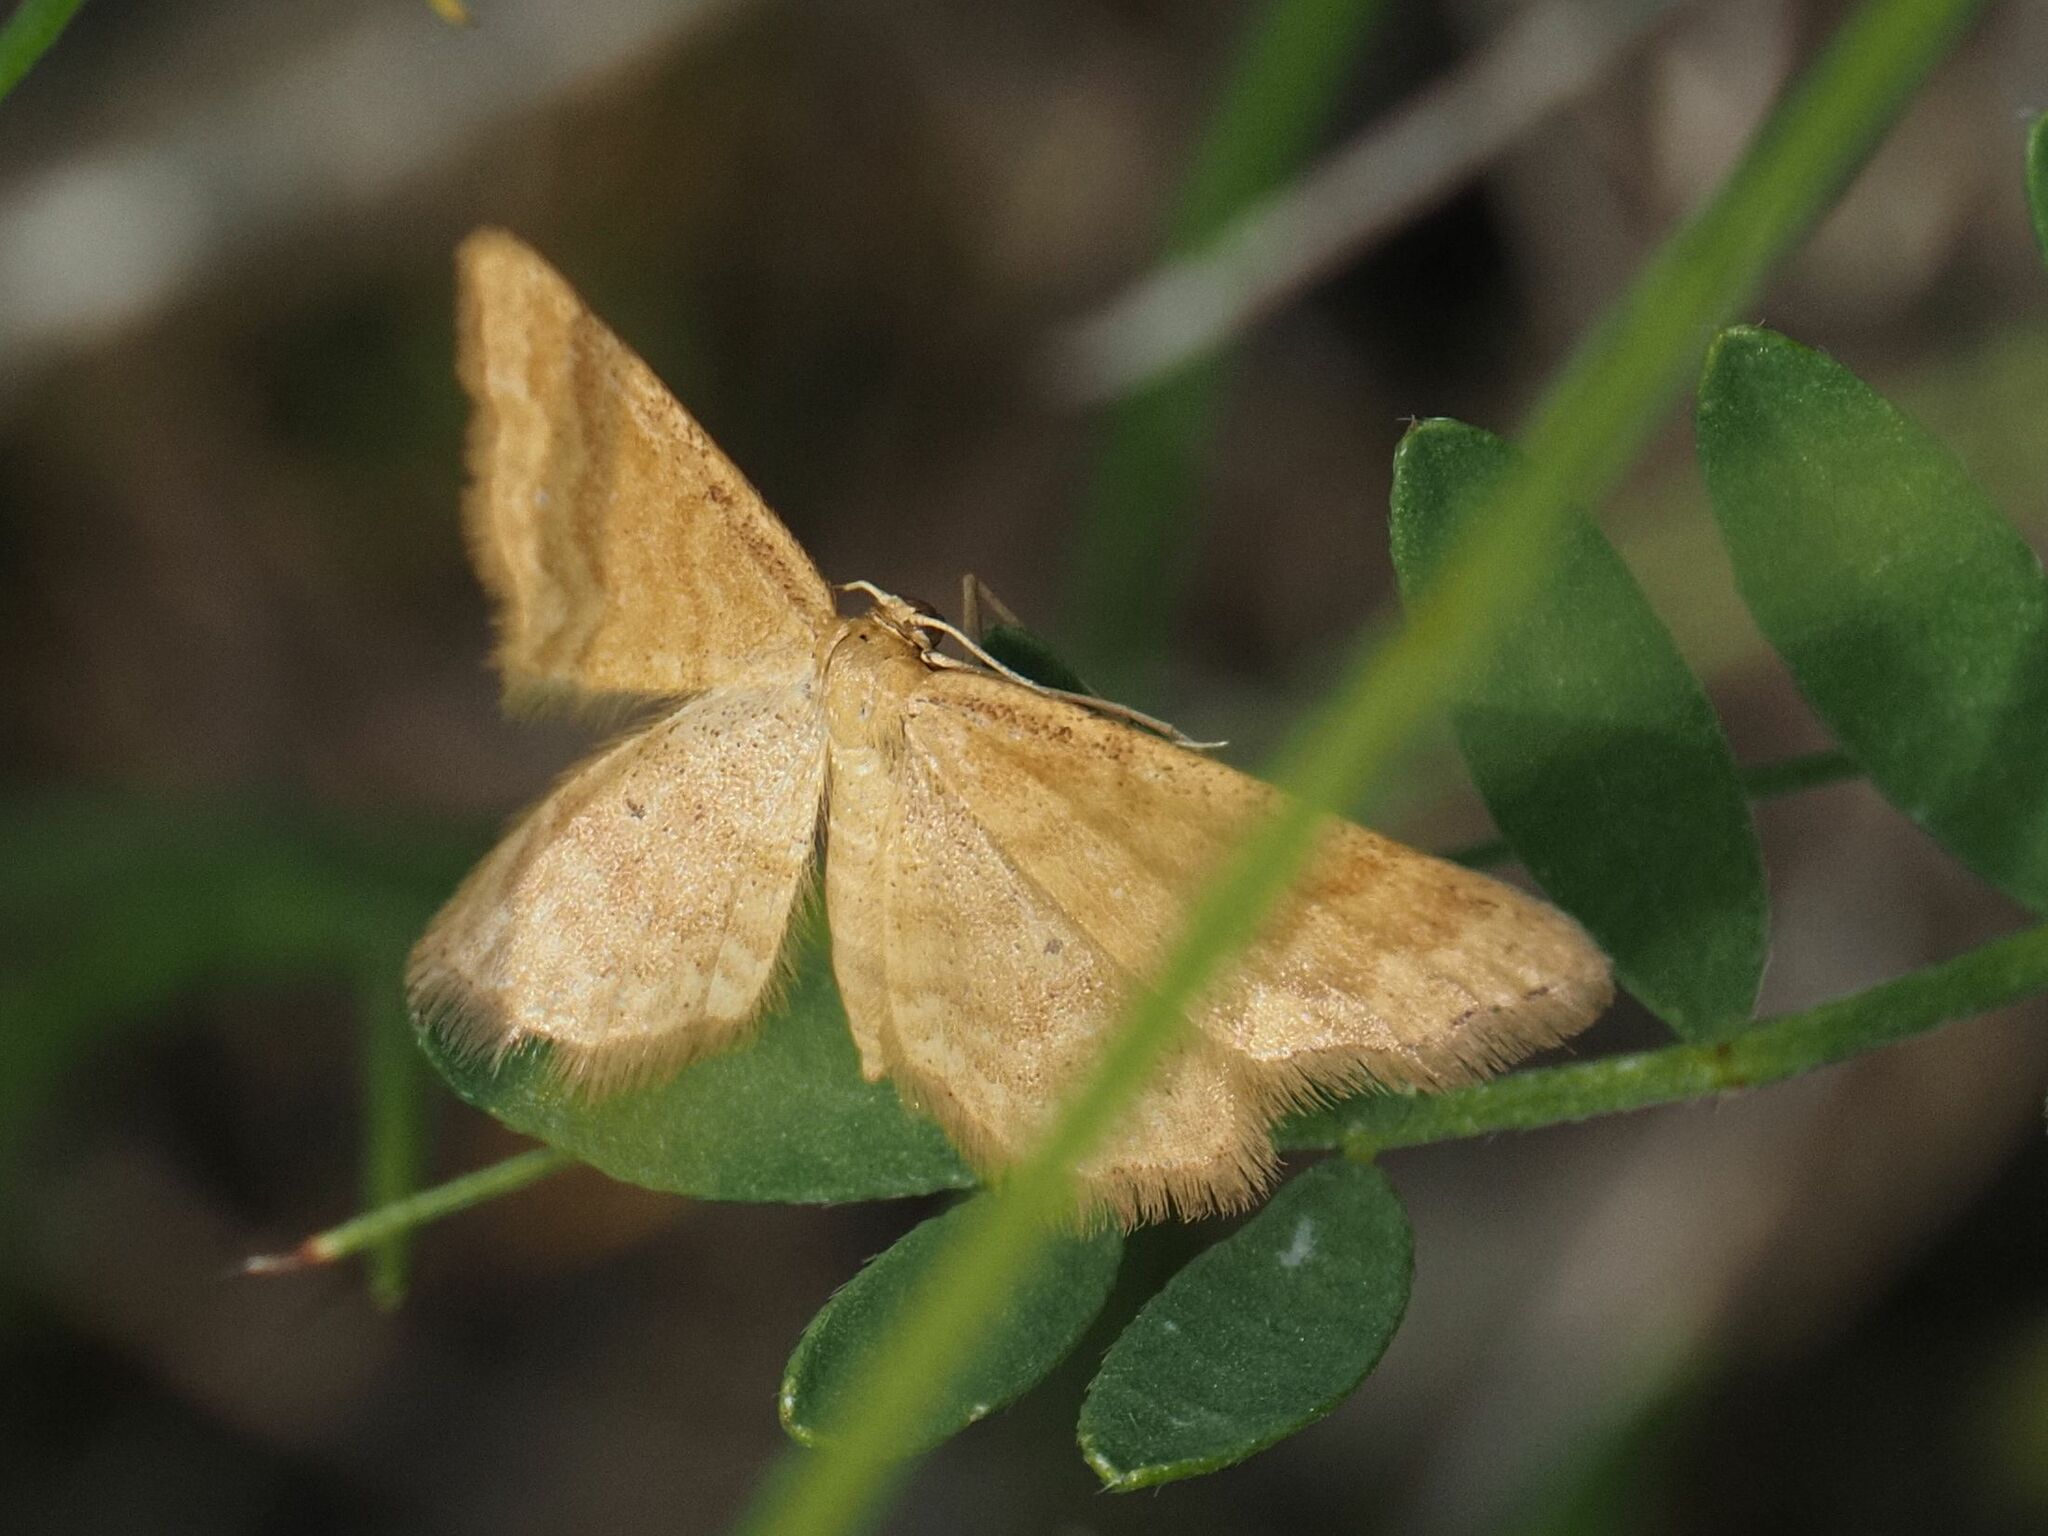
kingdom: Animalia
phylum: Arthropoda
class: Insecta
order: Lepidoptera
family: Geometridae
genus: Idaea
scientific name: Idaea serpentata
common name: Ochraceous wave
